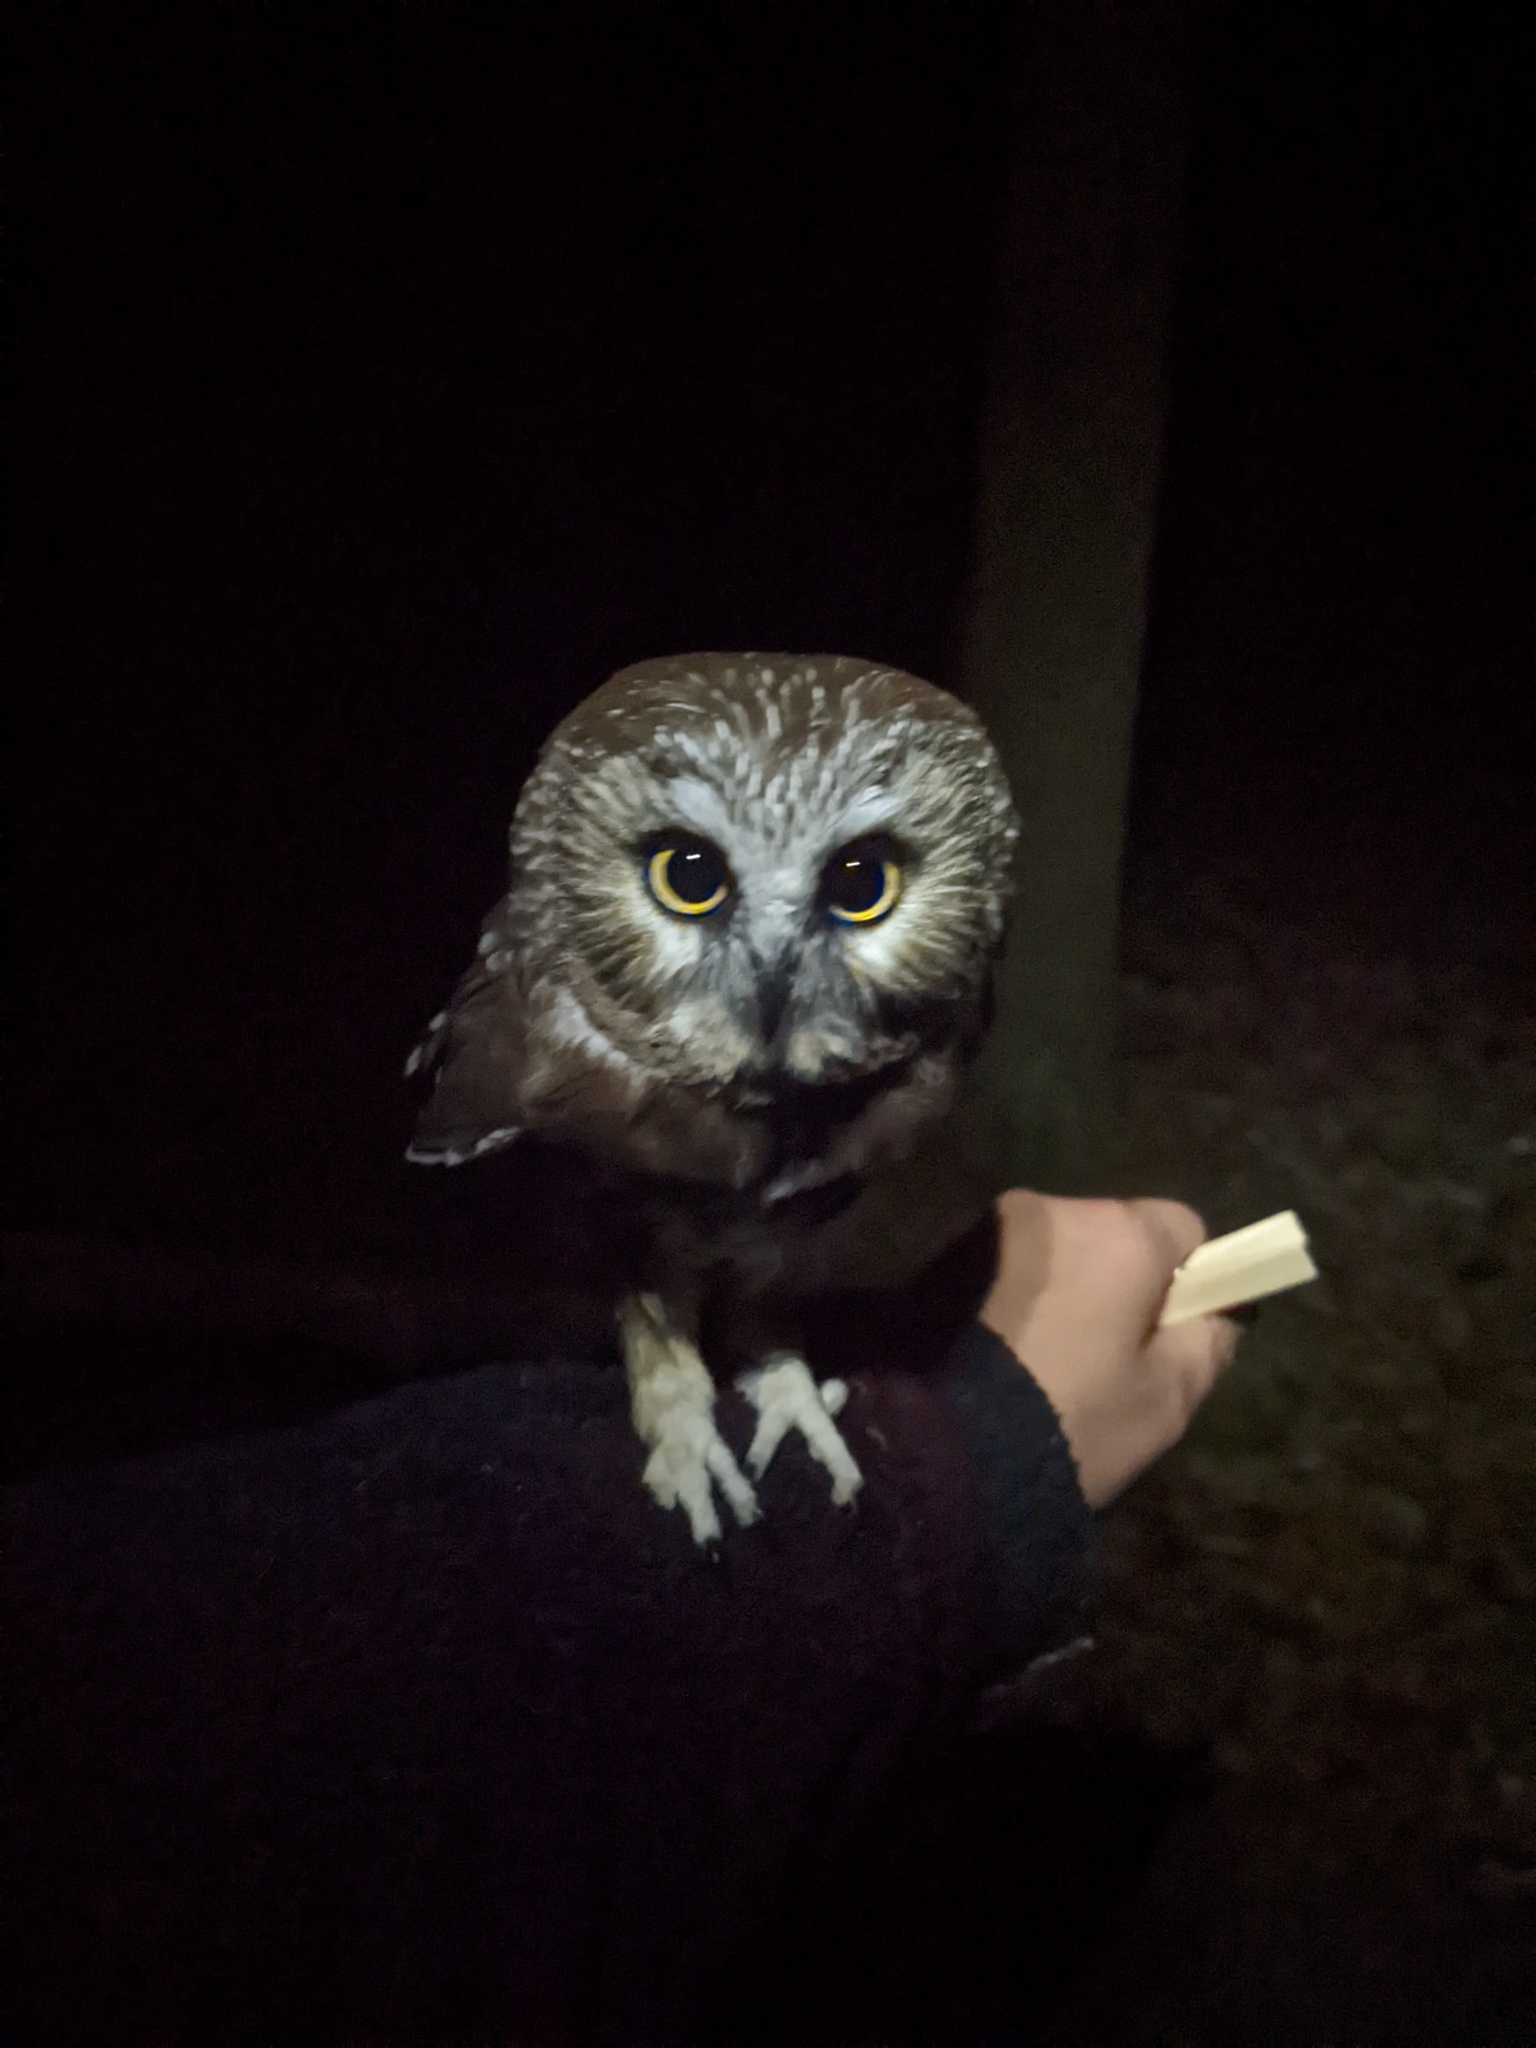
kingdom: Animalia
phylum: Chordata
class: Aves
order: Strigiformes
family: Strigidae
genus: Aegolius
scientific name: Aegolius acadicus
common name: Northern saw-whet owl
